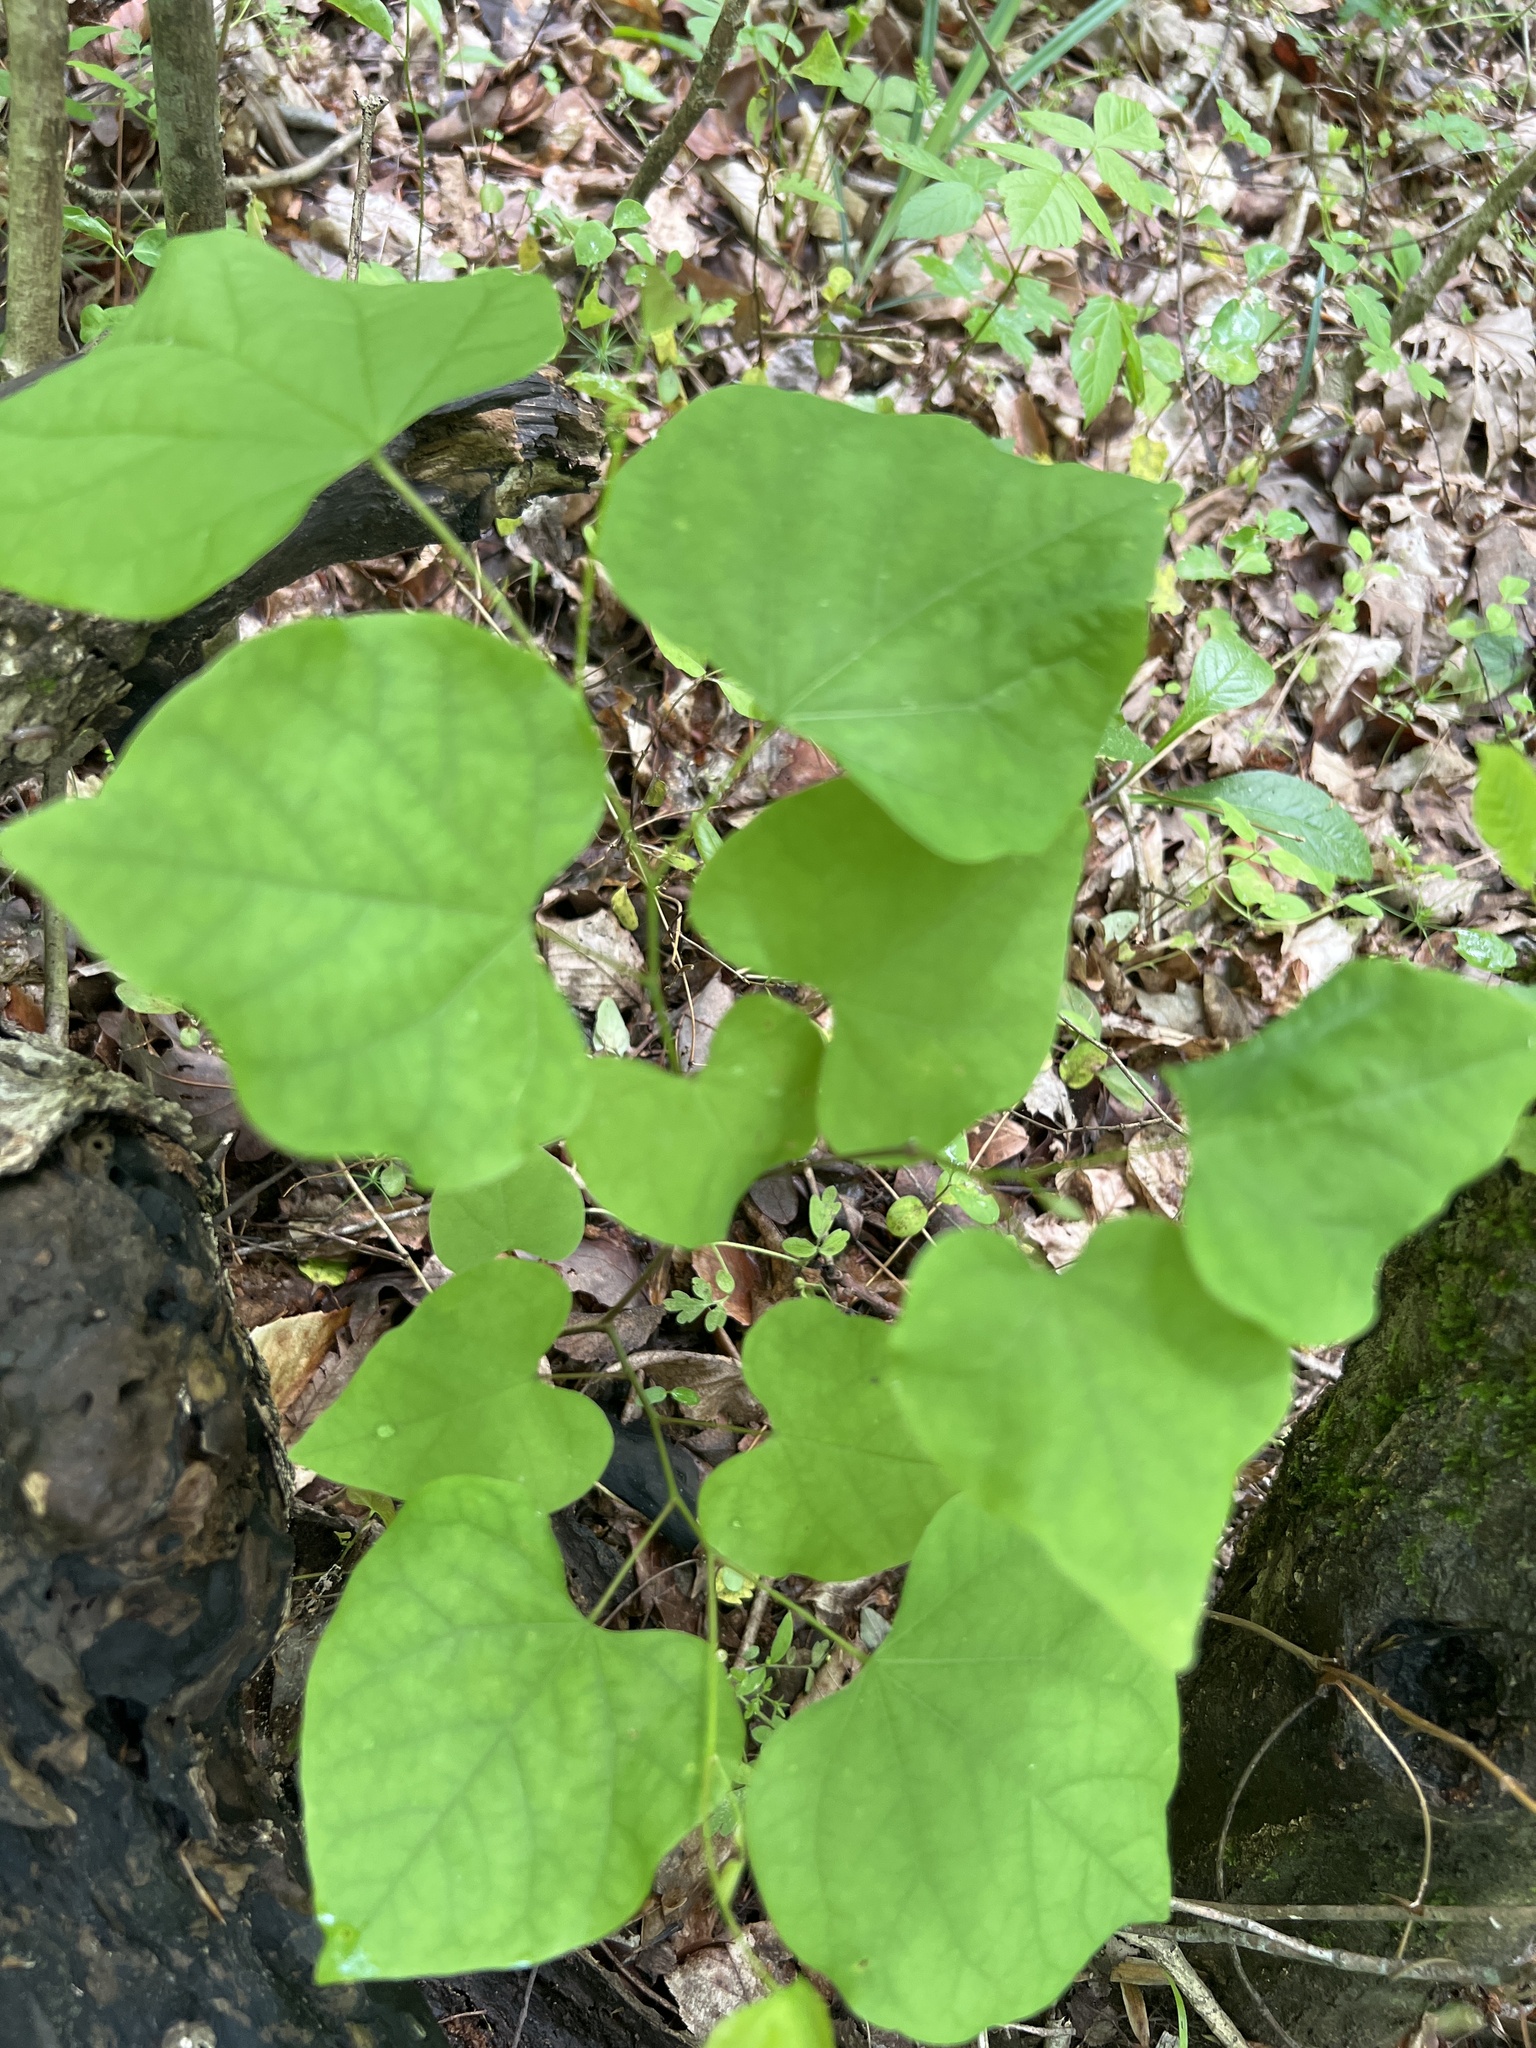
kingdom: Plantae
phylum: Tracheophyta
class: Magnoliopsida
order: Fabales
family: Fabaceae
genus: Cercis
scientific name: Cercis canadensis
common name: Eastern redbud
